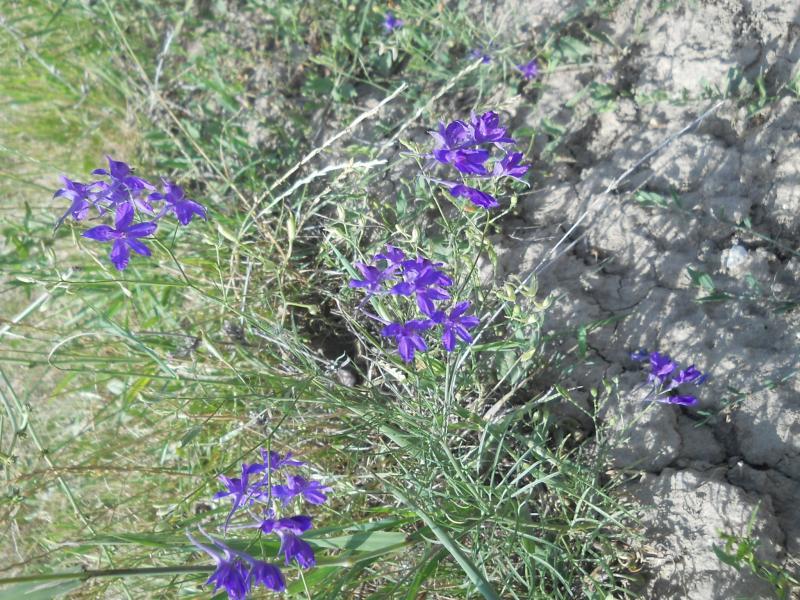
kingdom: Plantae
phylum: Tracheophyta
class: Magnoliopsida
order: Ranunculales
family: Ranunculaceae
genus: Delphinium
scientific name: Delphinium consolida
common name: Branching larkspur
